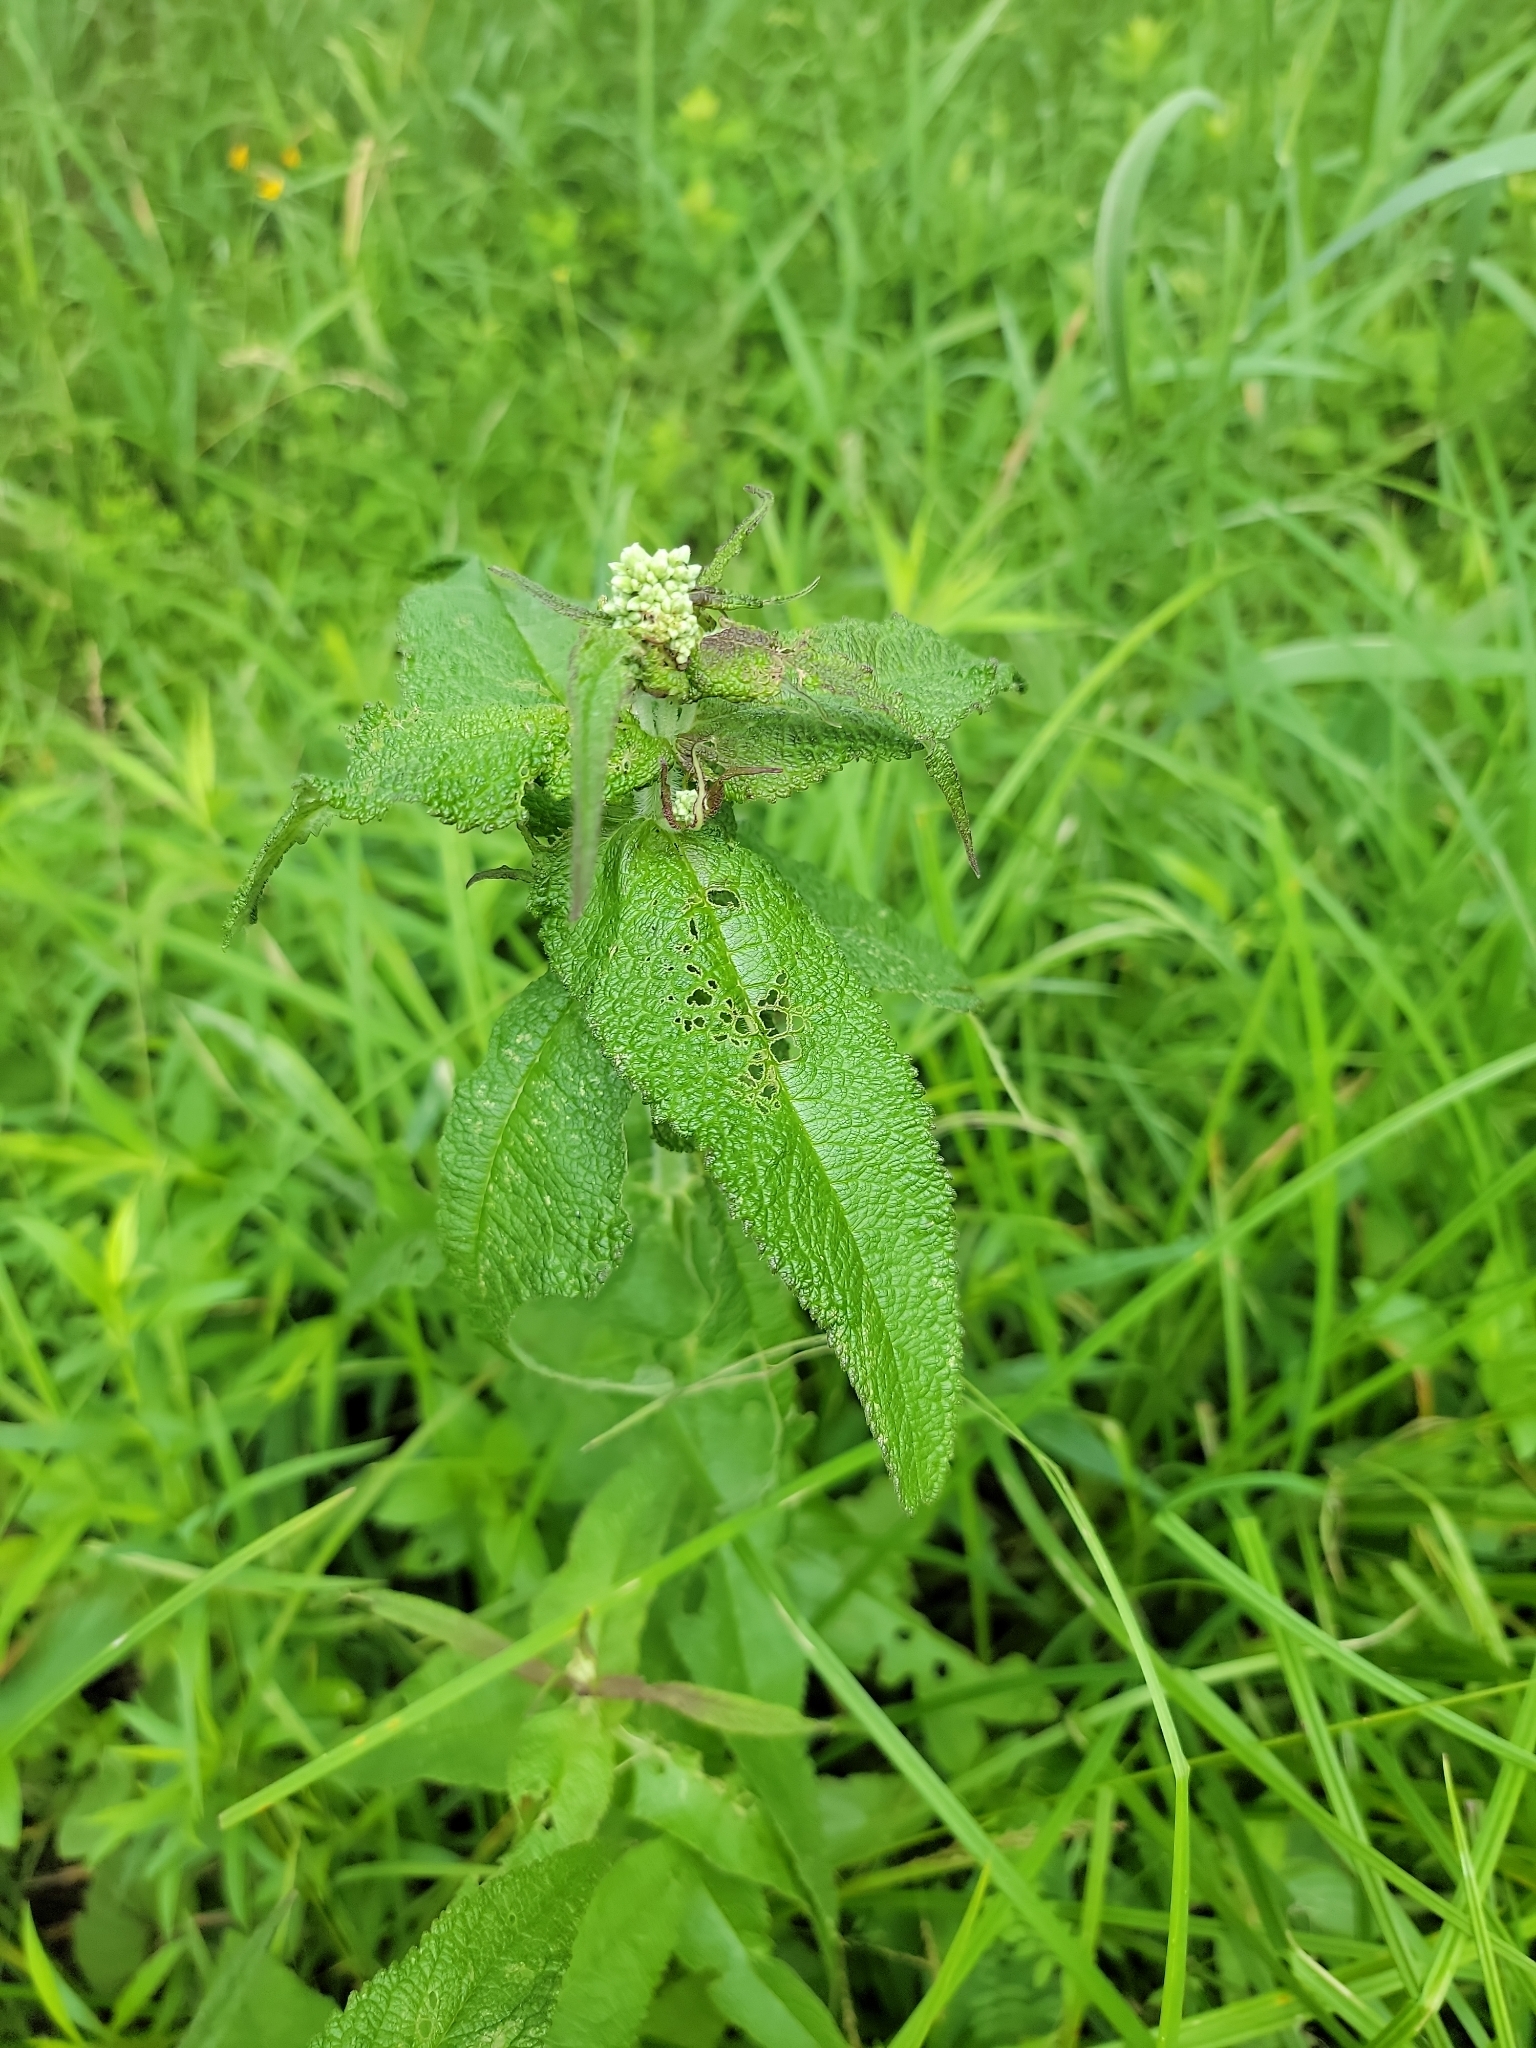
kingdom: Plantae
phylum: Tracheophyta
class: Magnoliopsida
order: Asterales
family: Asteraceae
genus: Eupatorium
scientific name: Eupatorium perfoliatum
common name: Boneset
